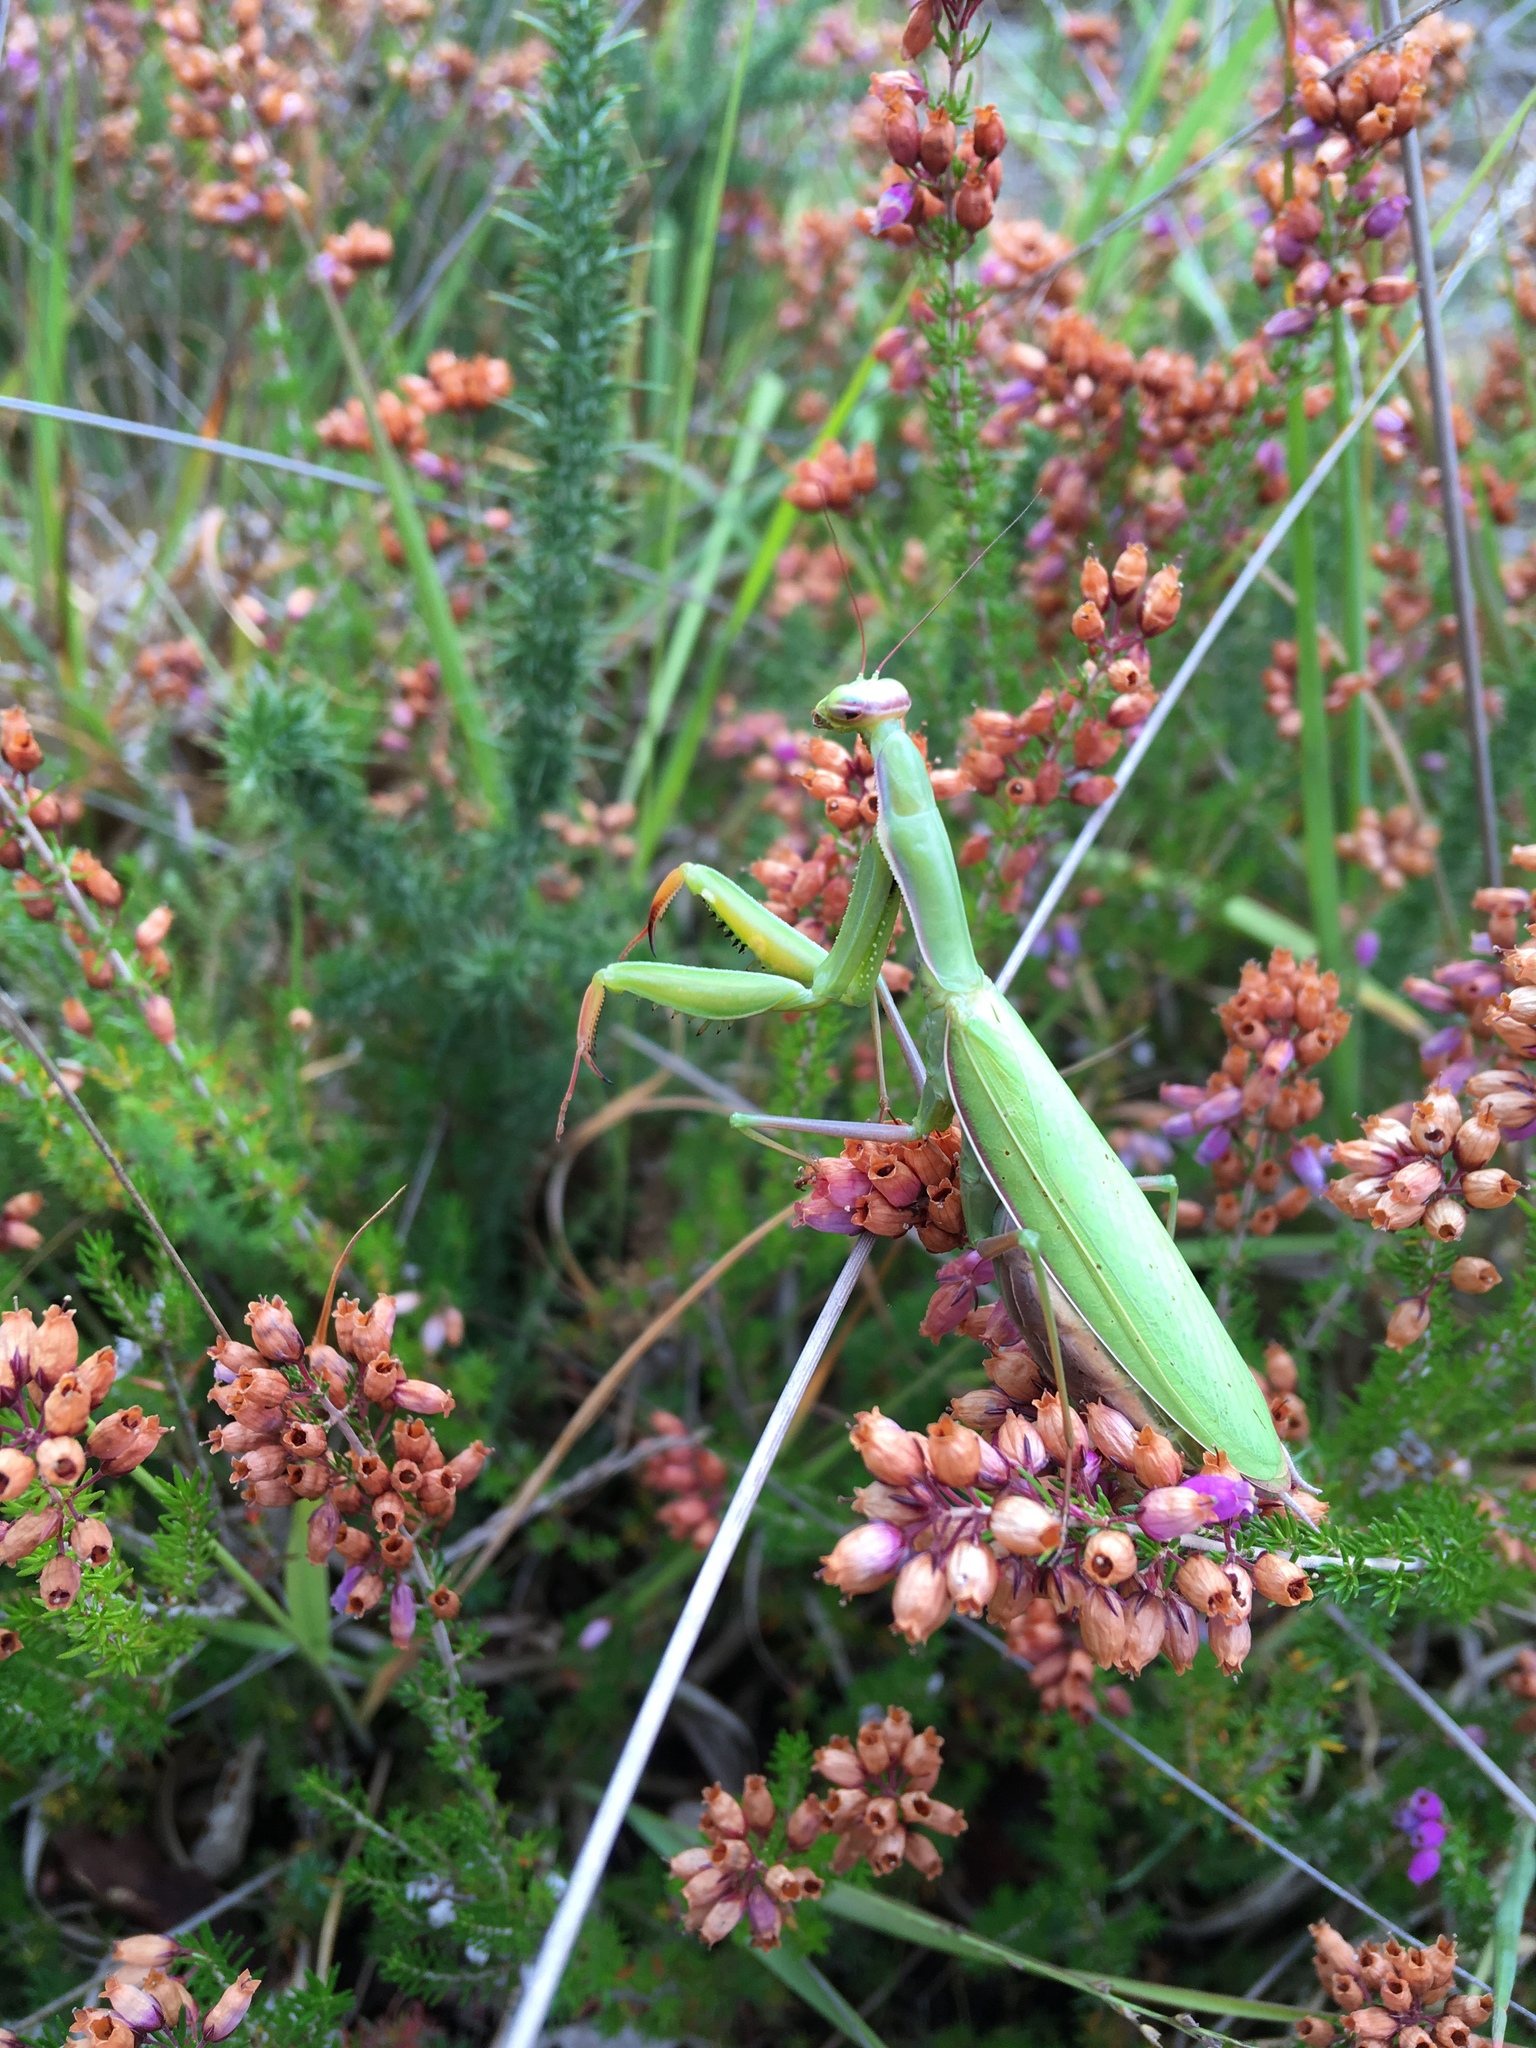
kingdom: Animalia
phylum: Arthropoda
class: Insecta
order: Mantodea
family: Mantidae
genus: Mantis
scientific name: Mantis religiosa
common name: Praying mantis
